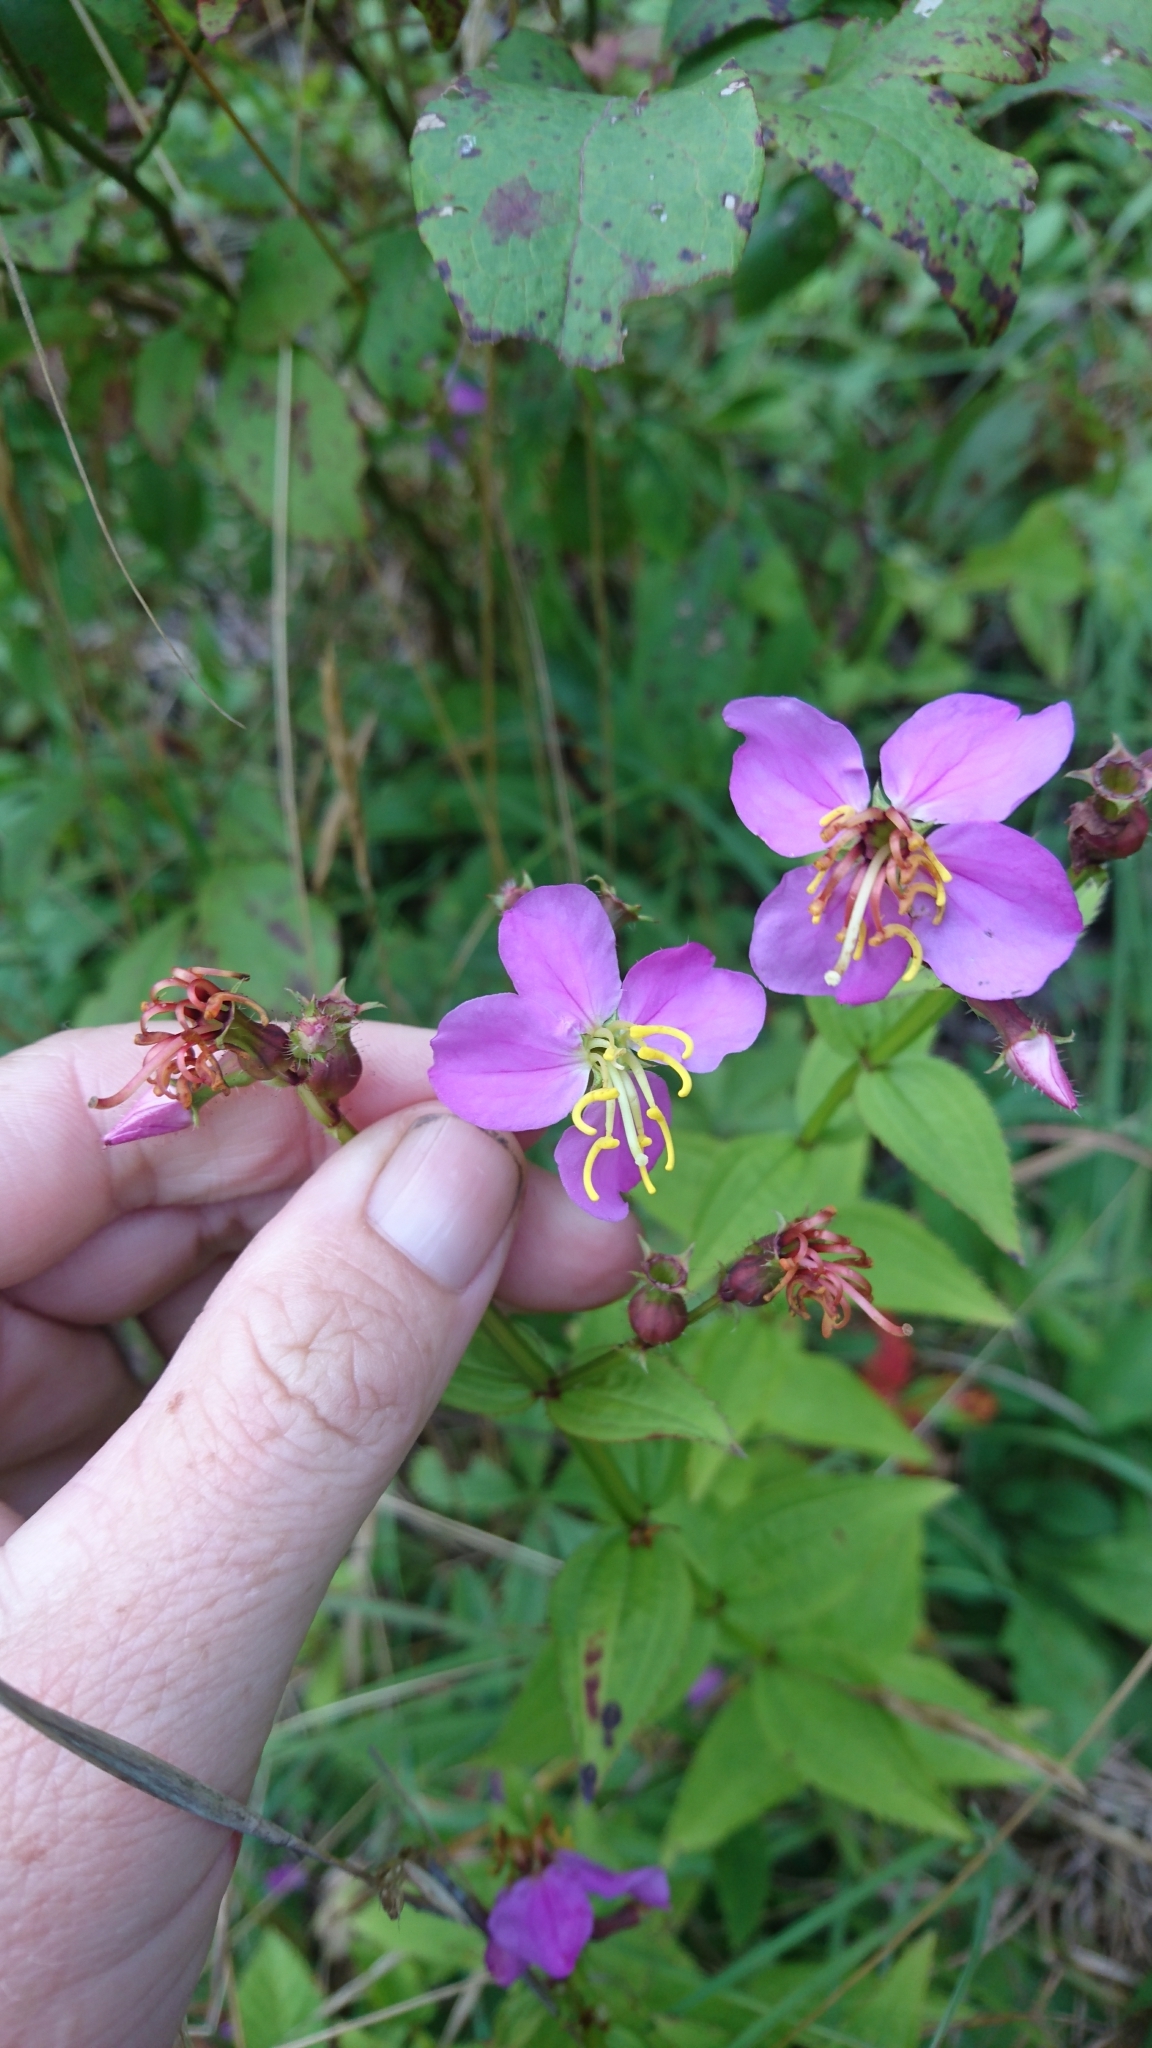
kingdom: Plantae
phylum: Tracheophyta
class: Magnoliopsida
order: Myrtales
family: Melastomataceae
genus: Rhexia
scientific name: Rhexia virginica
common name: Common meadow beauty
